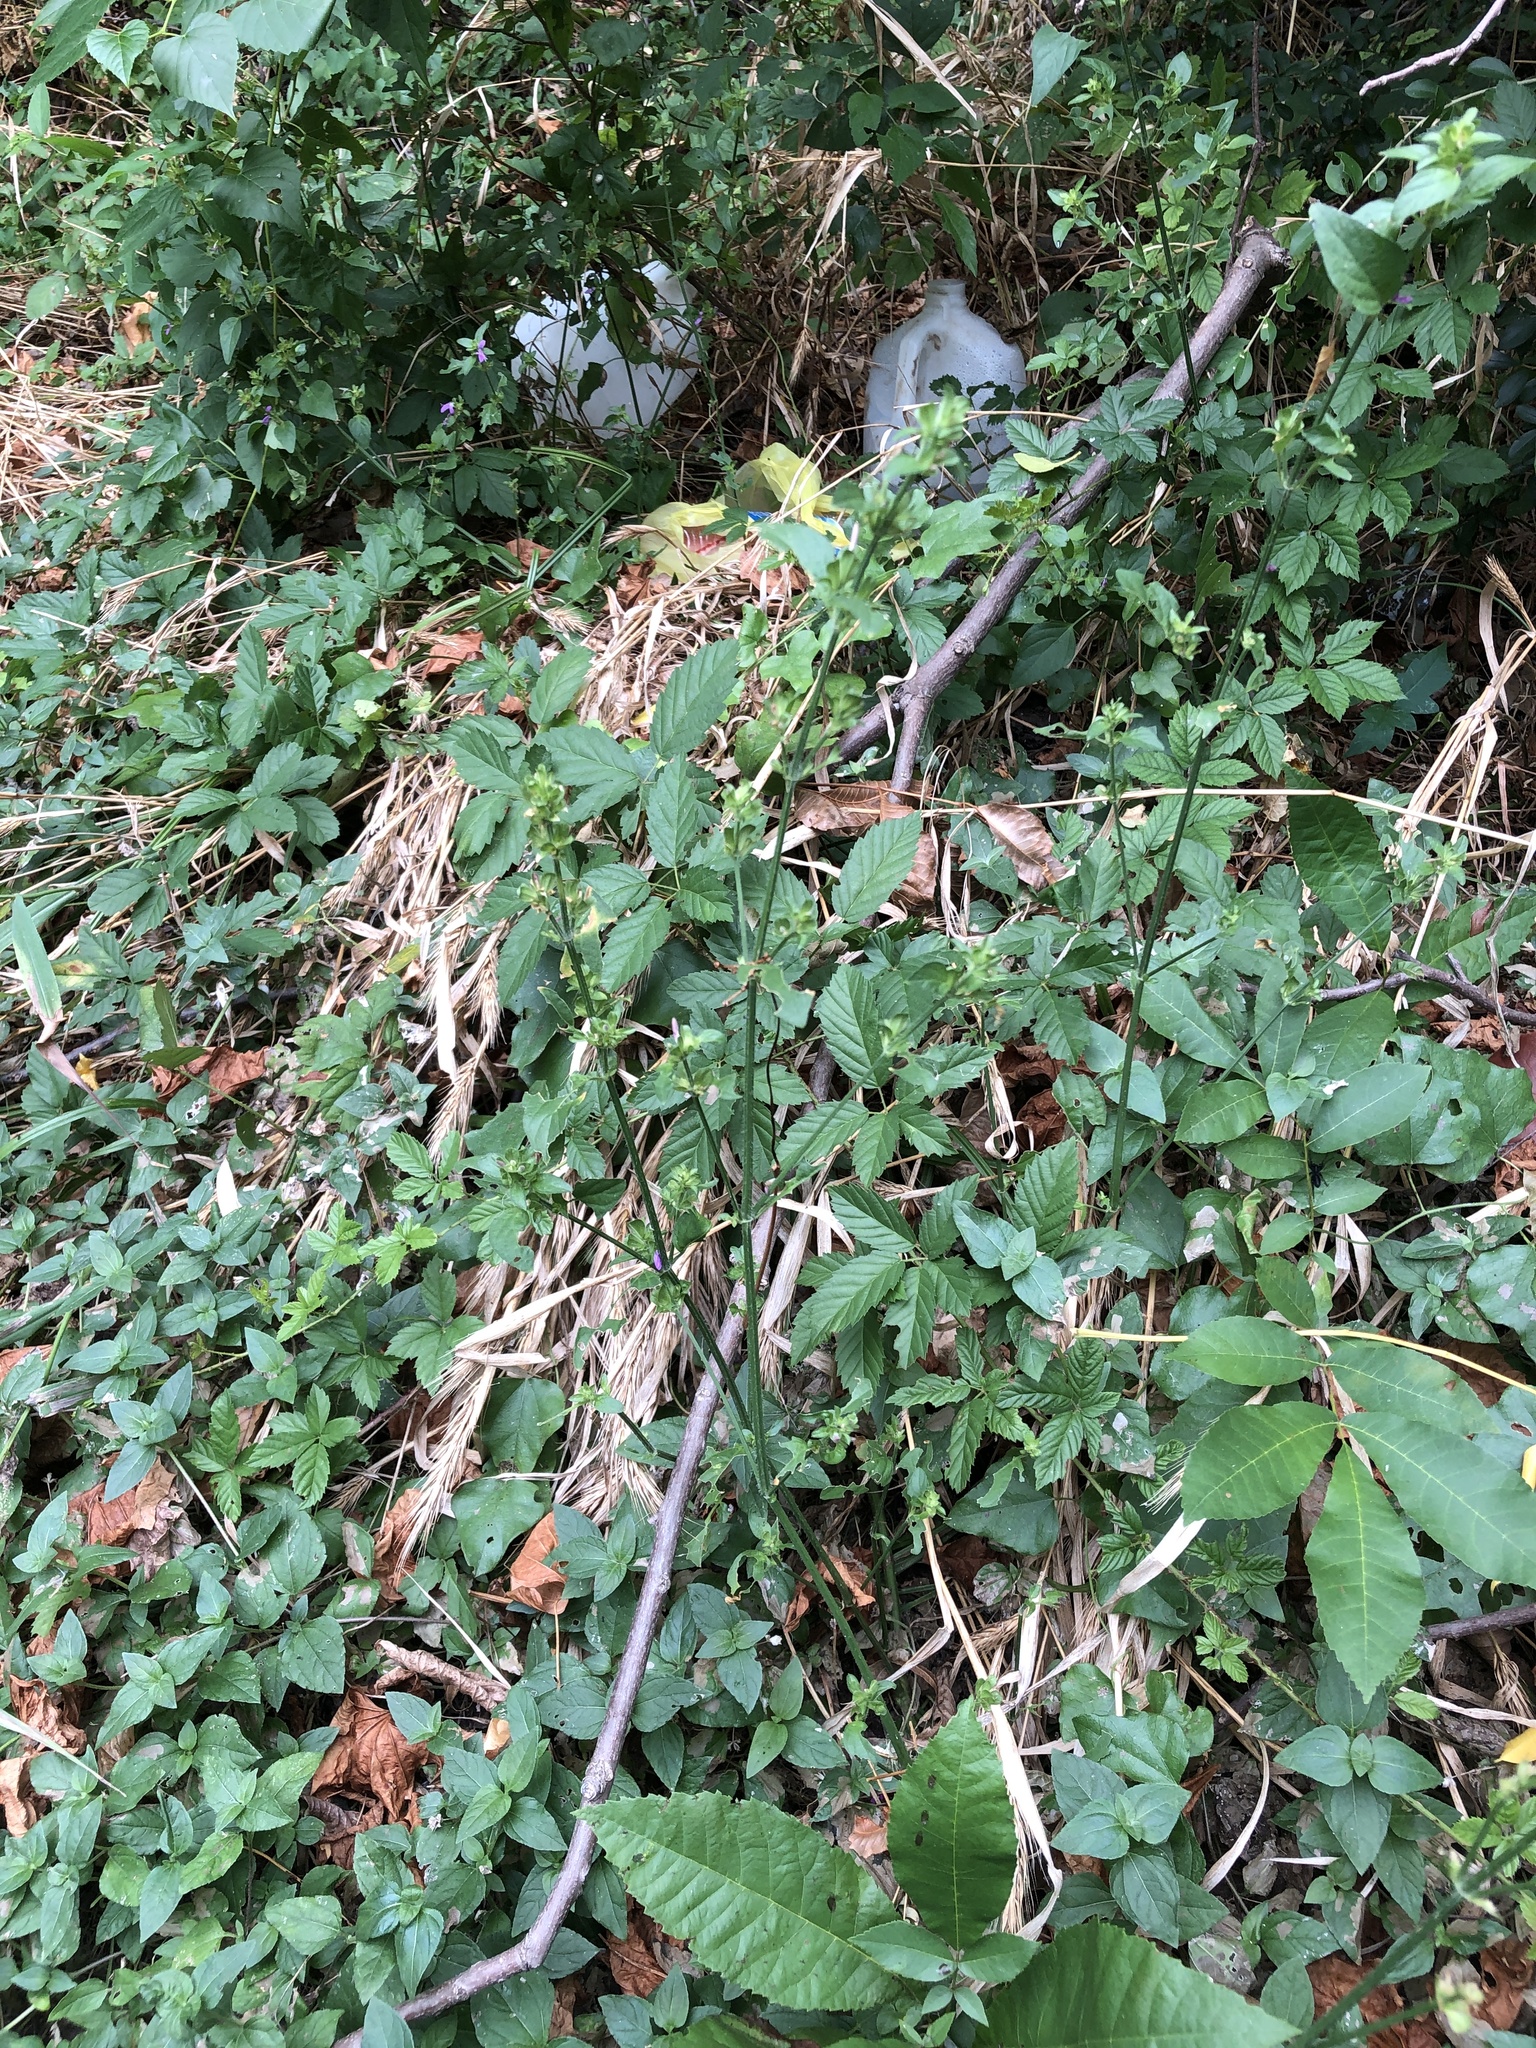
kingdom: Plantae
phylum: Tracheophyta
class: Magnoliopsida
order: Lamiales
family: Acanthaceae
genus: Dicliptera
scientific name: Dicliptera brachiata
